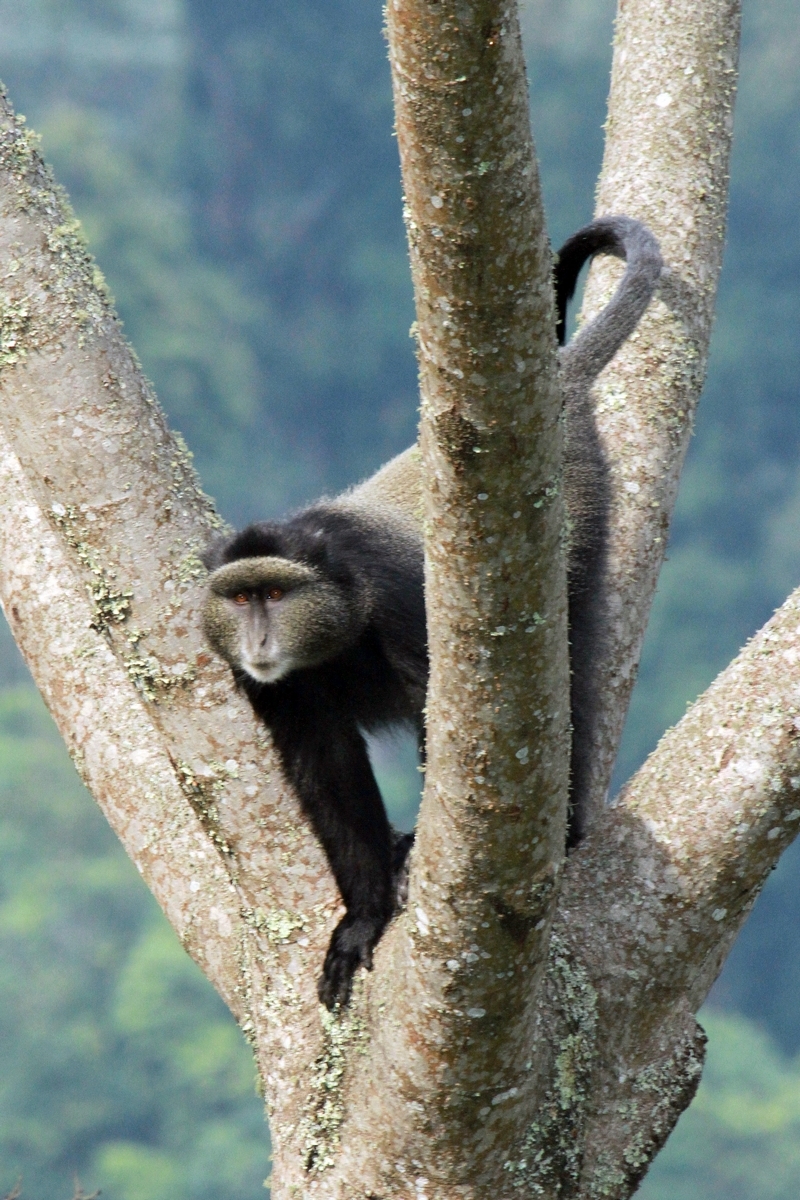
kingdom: Animalia
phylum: Chordata
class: Mammalia
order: Primates
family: Cercopithecidae
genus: Cercopithecus
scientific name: Cercopithecus mitis
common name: Blue monkey
